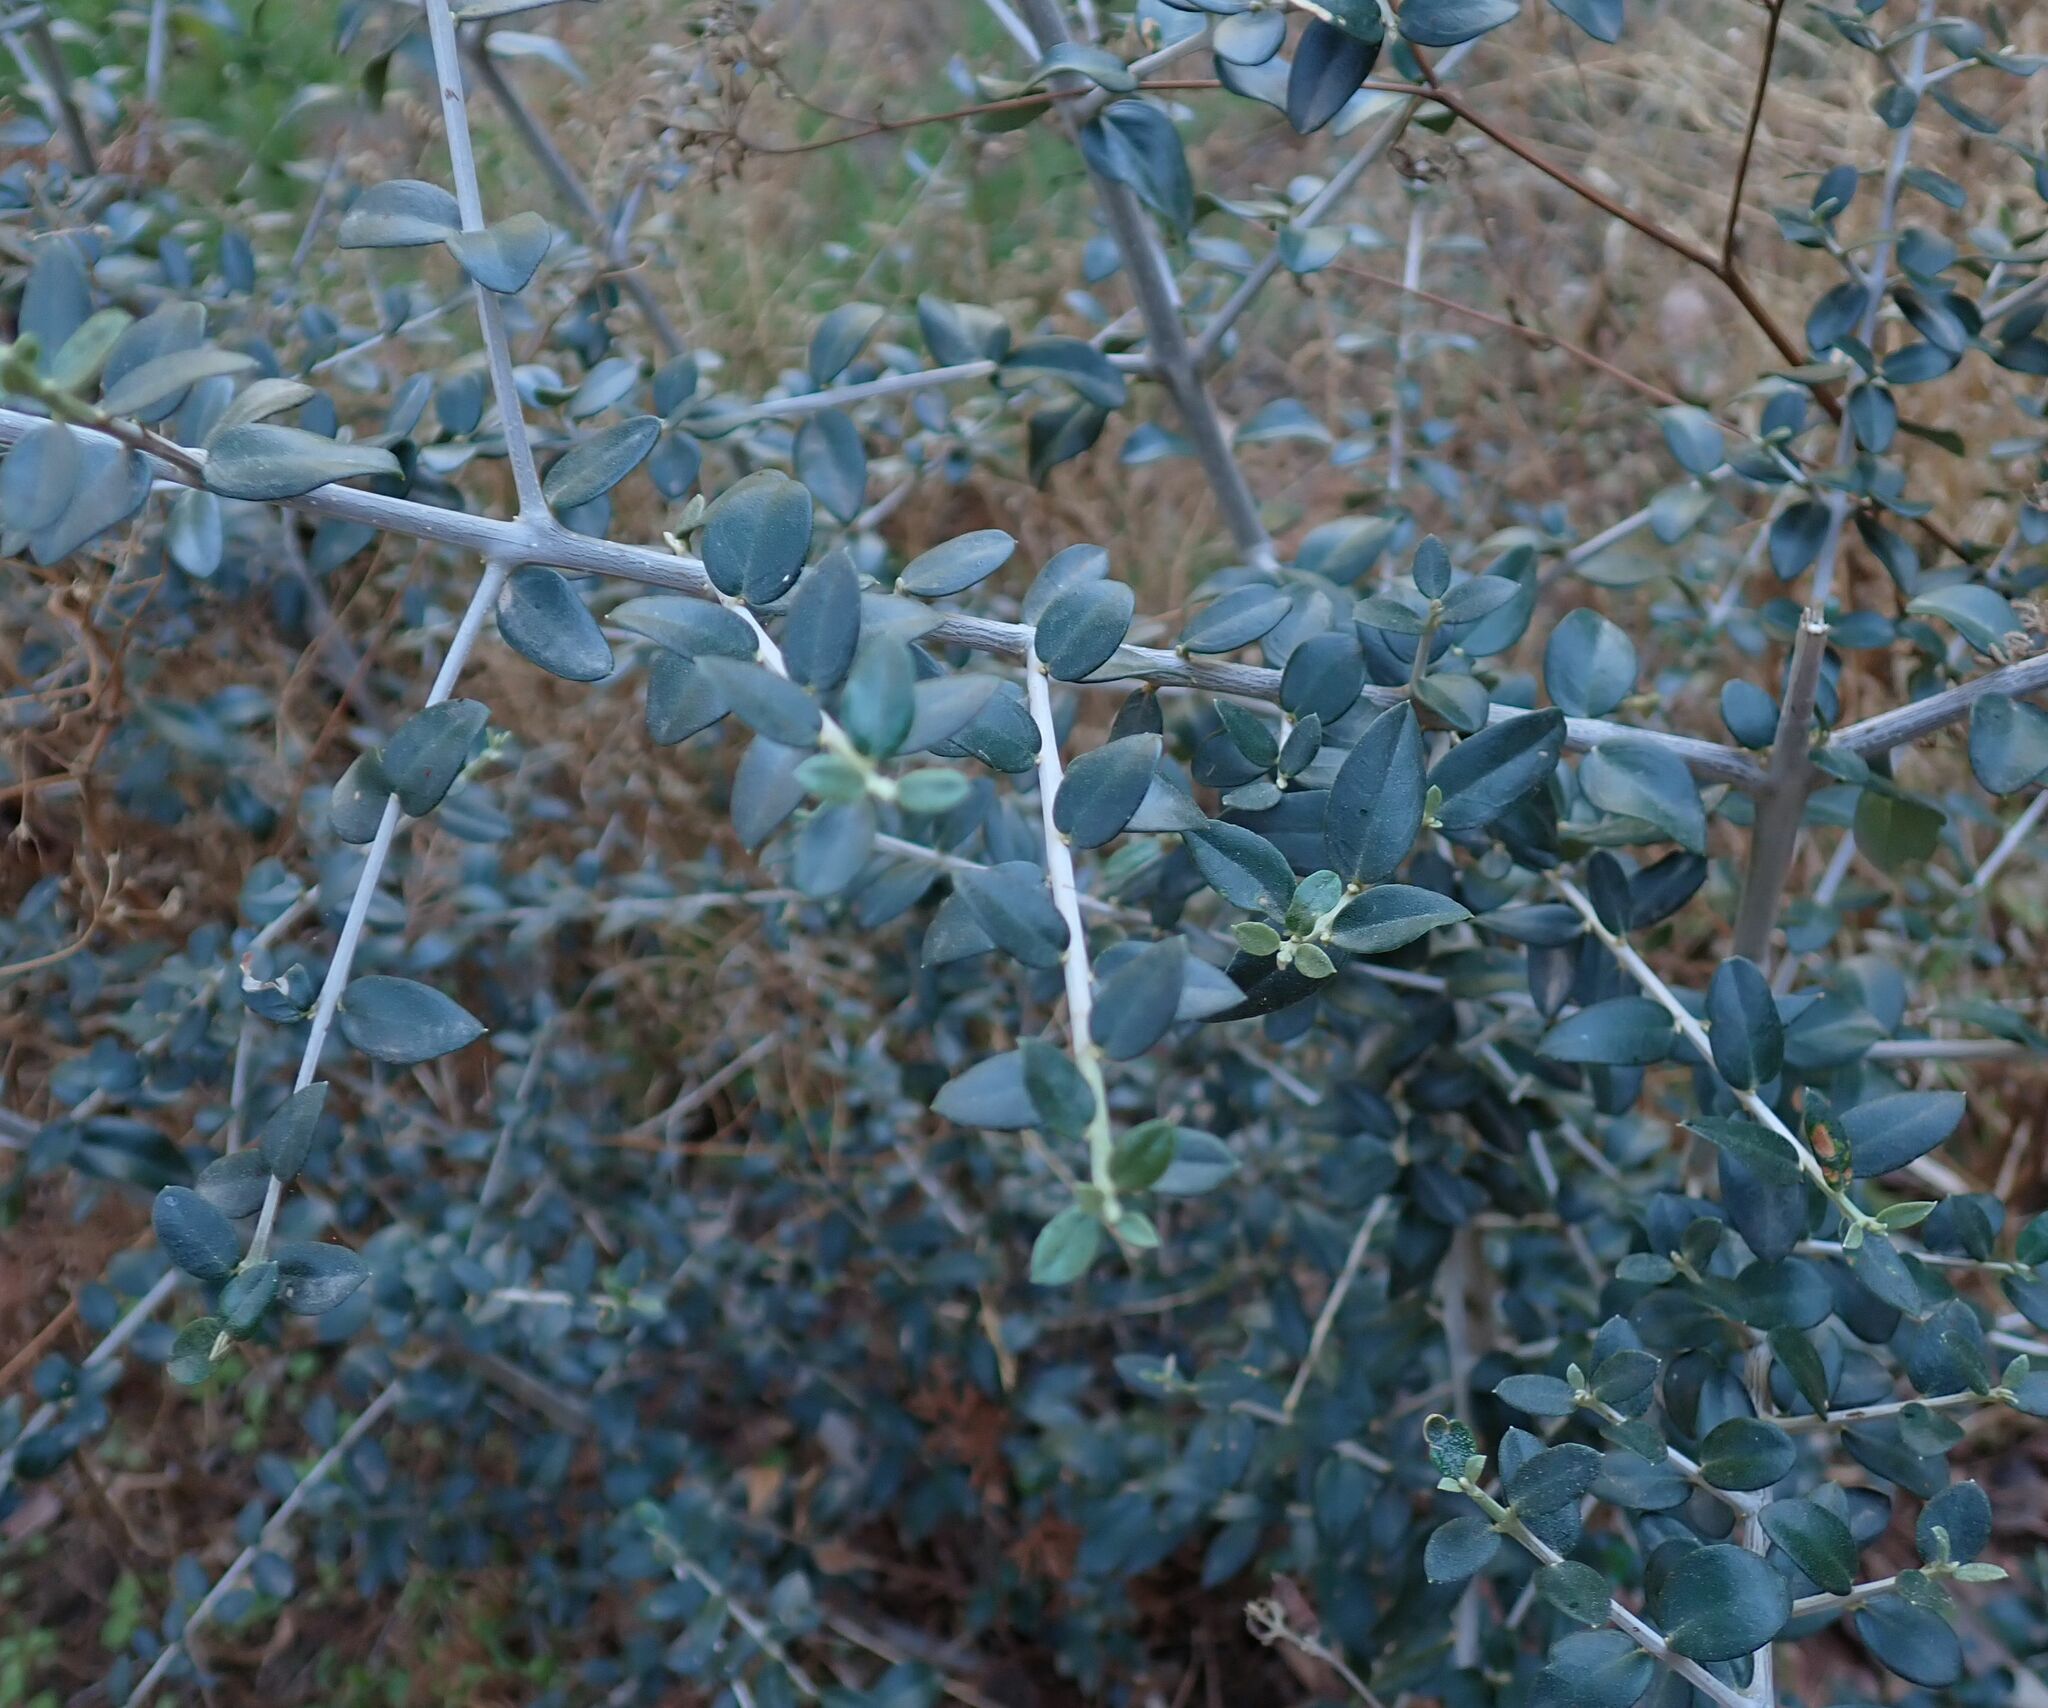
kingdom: Plantae
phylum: Tracheophyta
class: Magnoliopsida
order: Lamiales
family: Oleaceae
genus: Olea
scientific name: Olea europaea
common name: Olive
